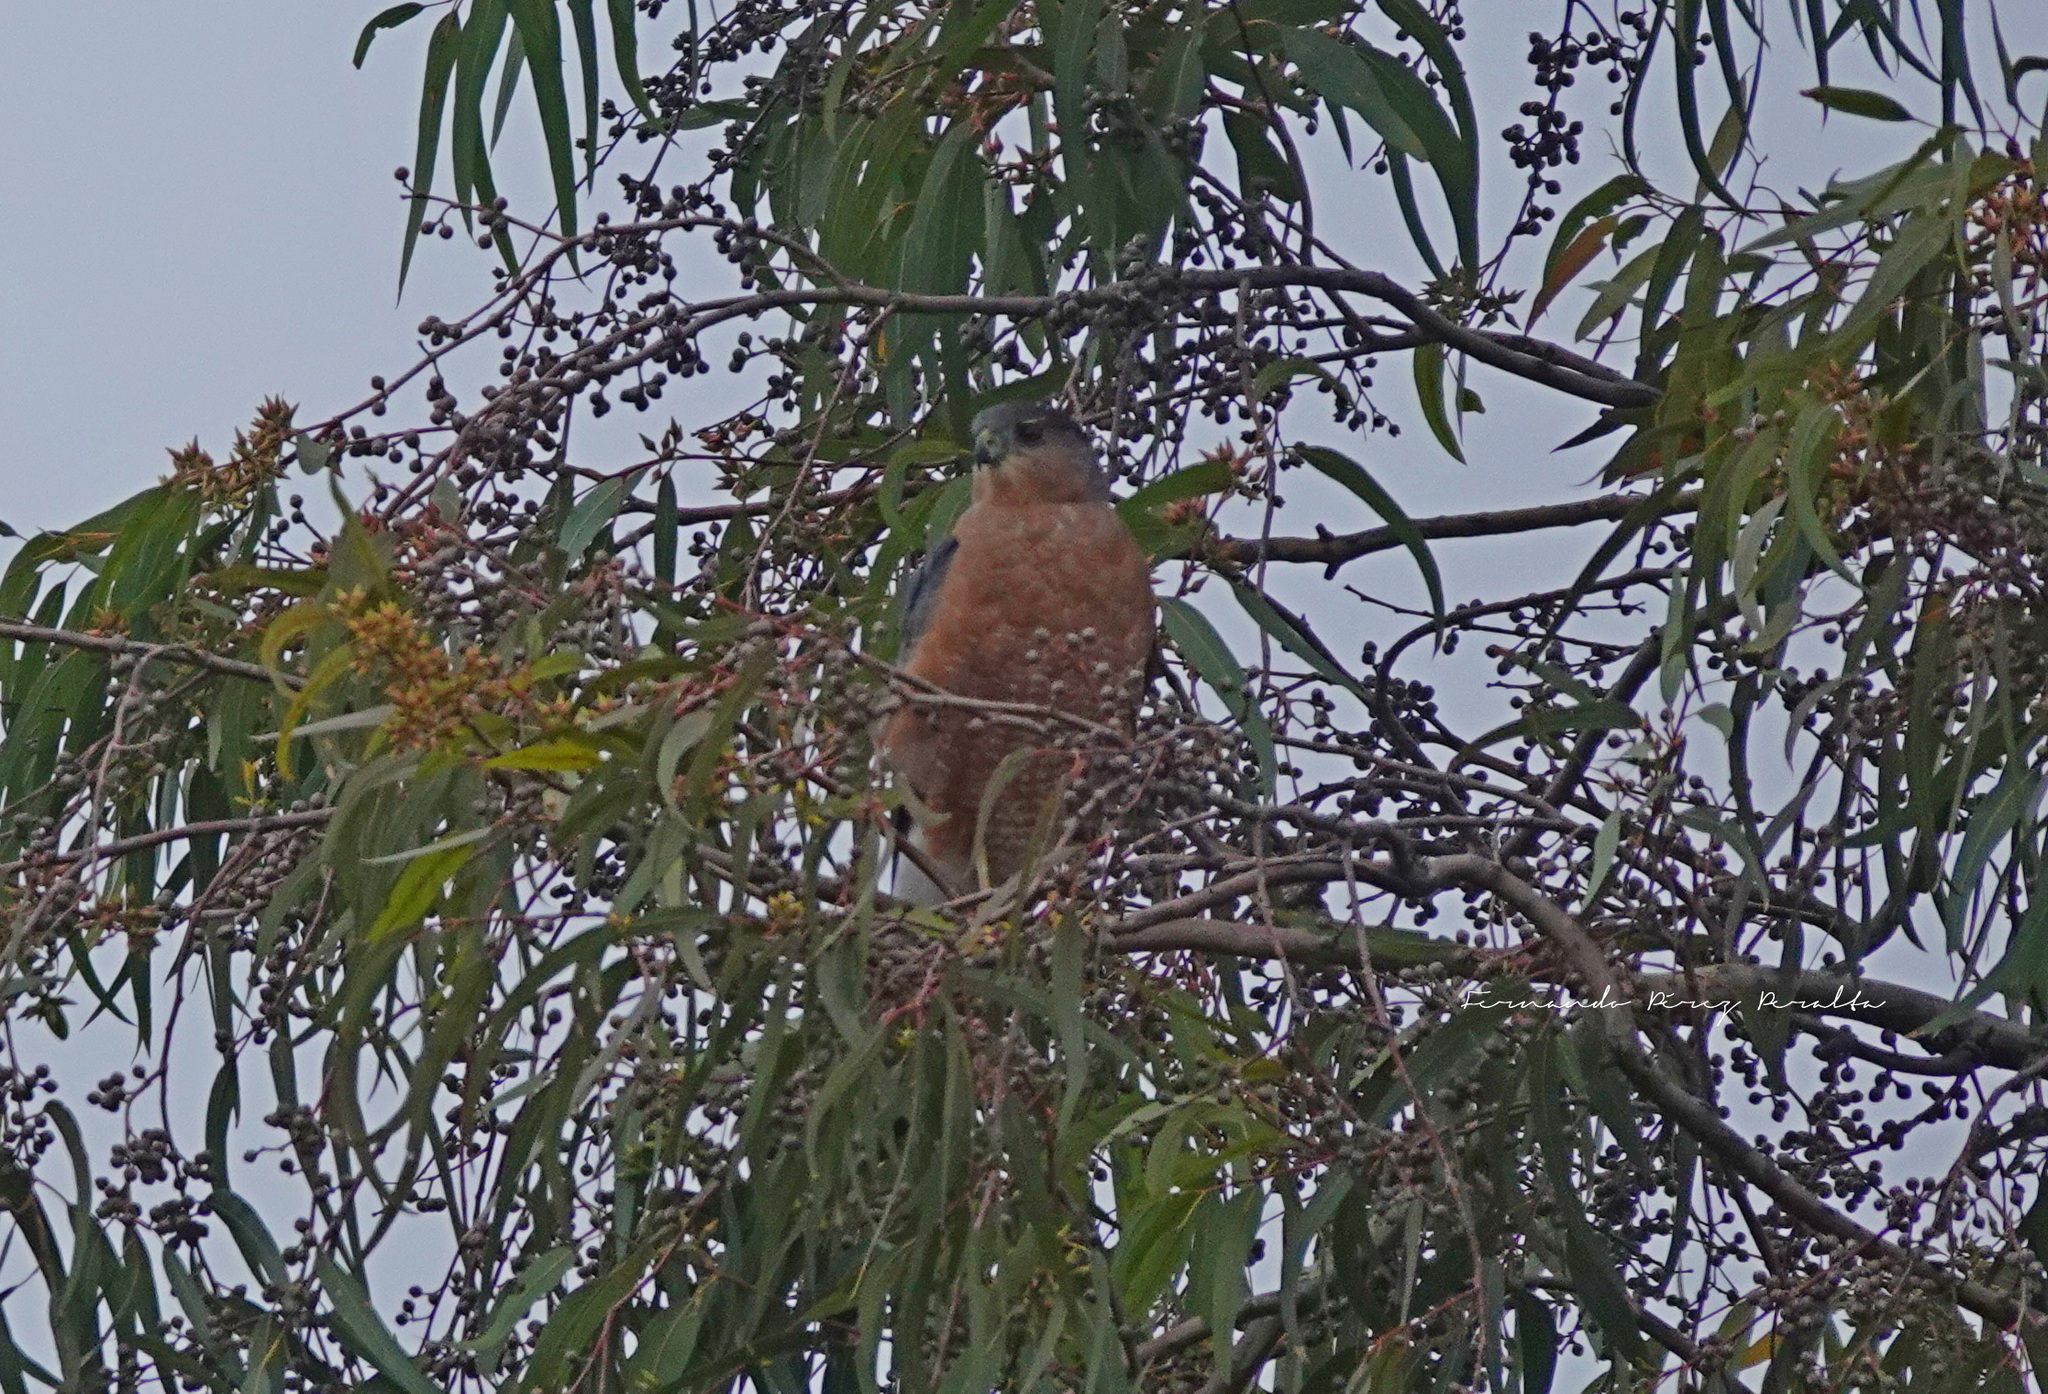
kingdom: Animalia
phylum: Chordata
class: Aves
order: Accipitriformes
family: Accipitridae
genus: Accipiter
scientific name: Accipiter cooperii
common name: Cooper's hawk
